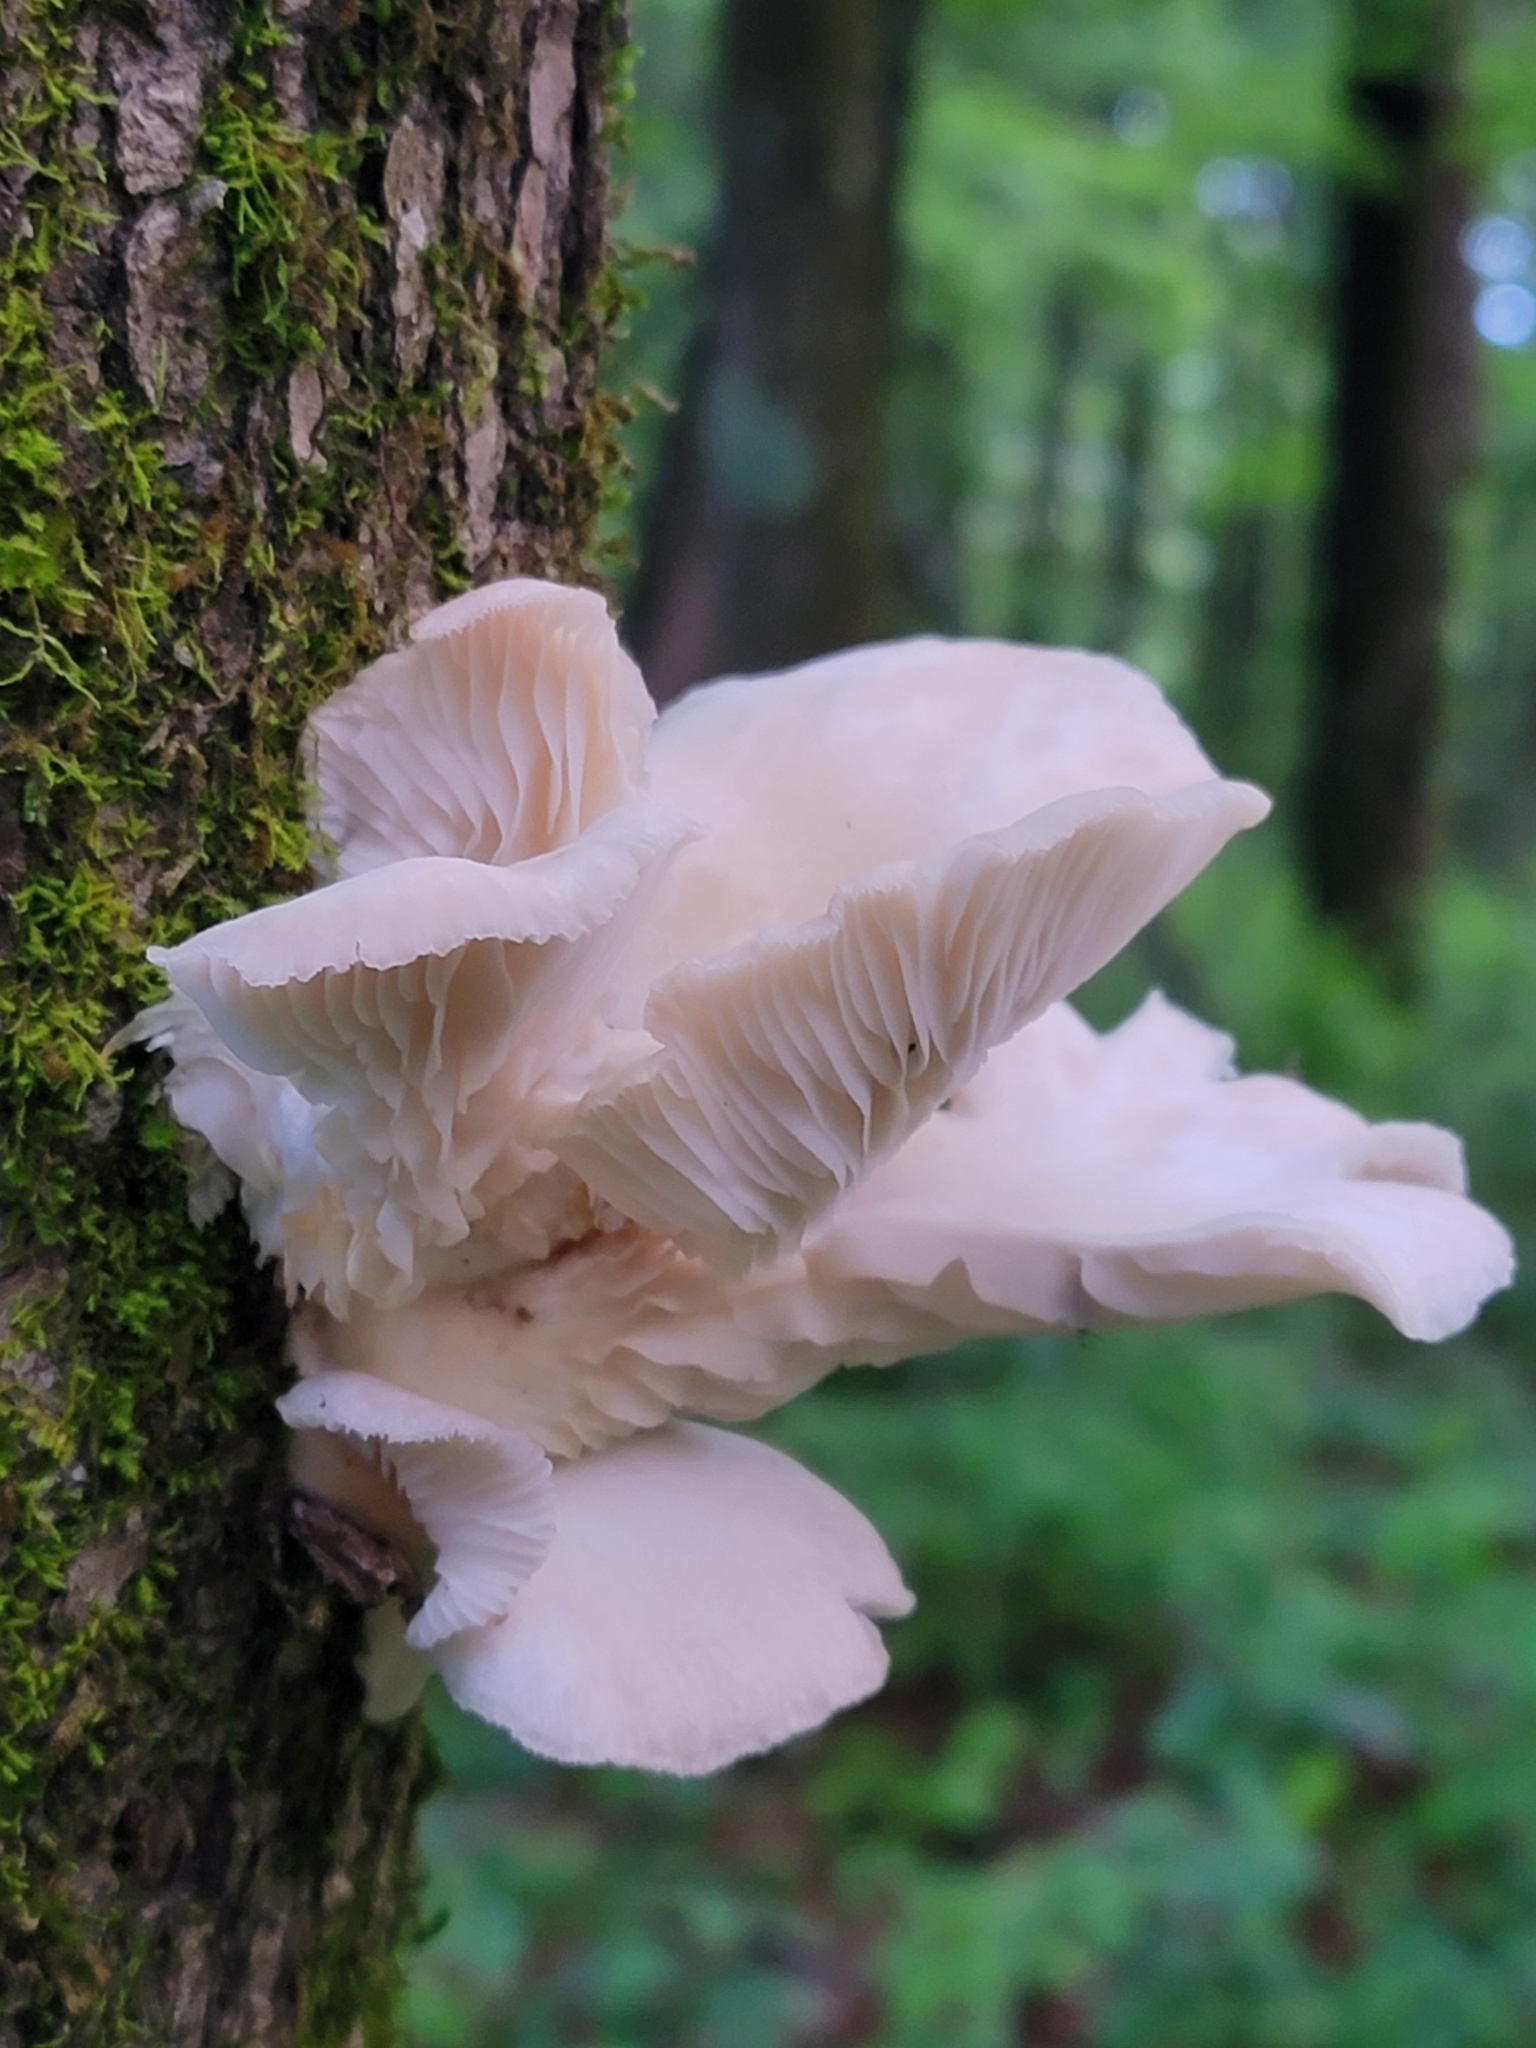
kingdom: Fungi
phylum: Basidiomycota
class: Agaricomycetes
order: Agaricales
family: Pleurotaceae
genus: Pleurotus
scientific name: Pleurotus pulmonarius
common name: Pale oyster
